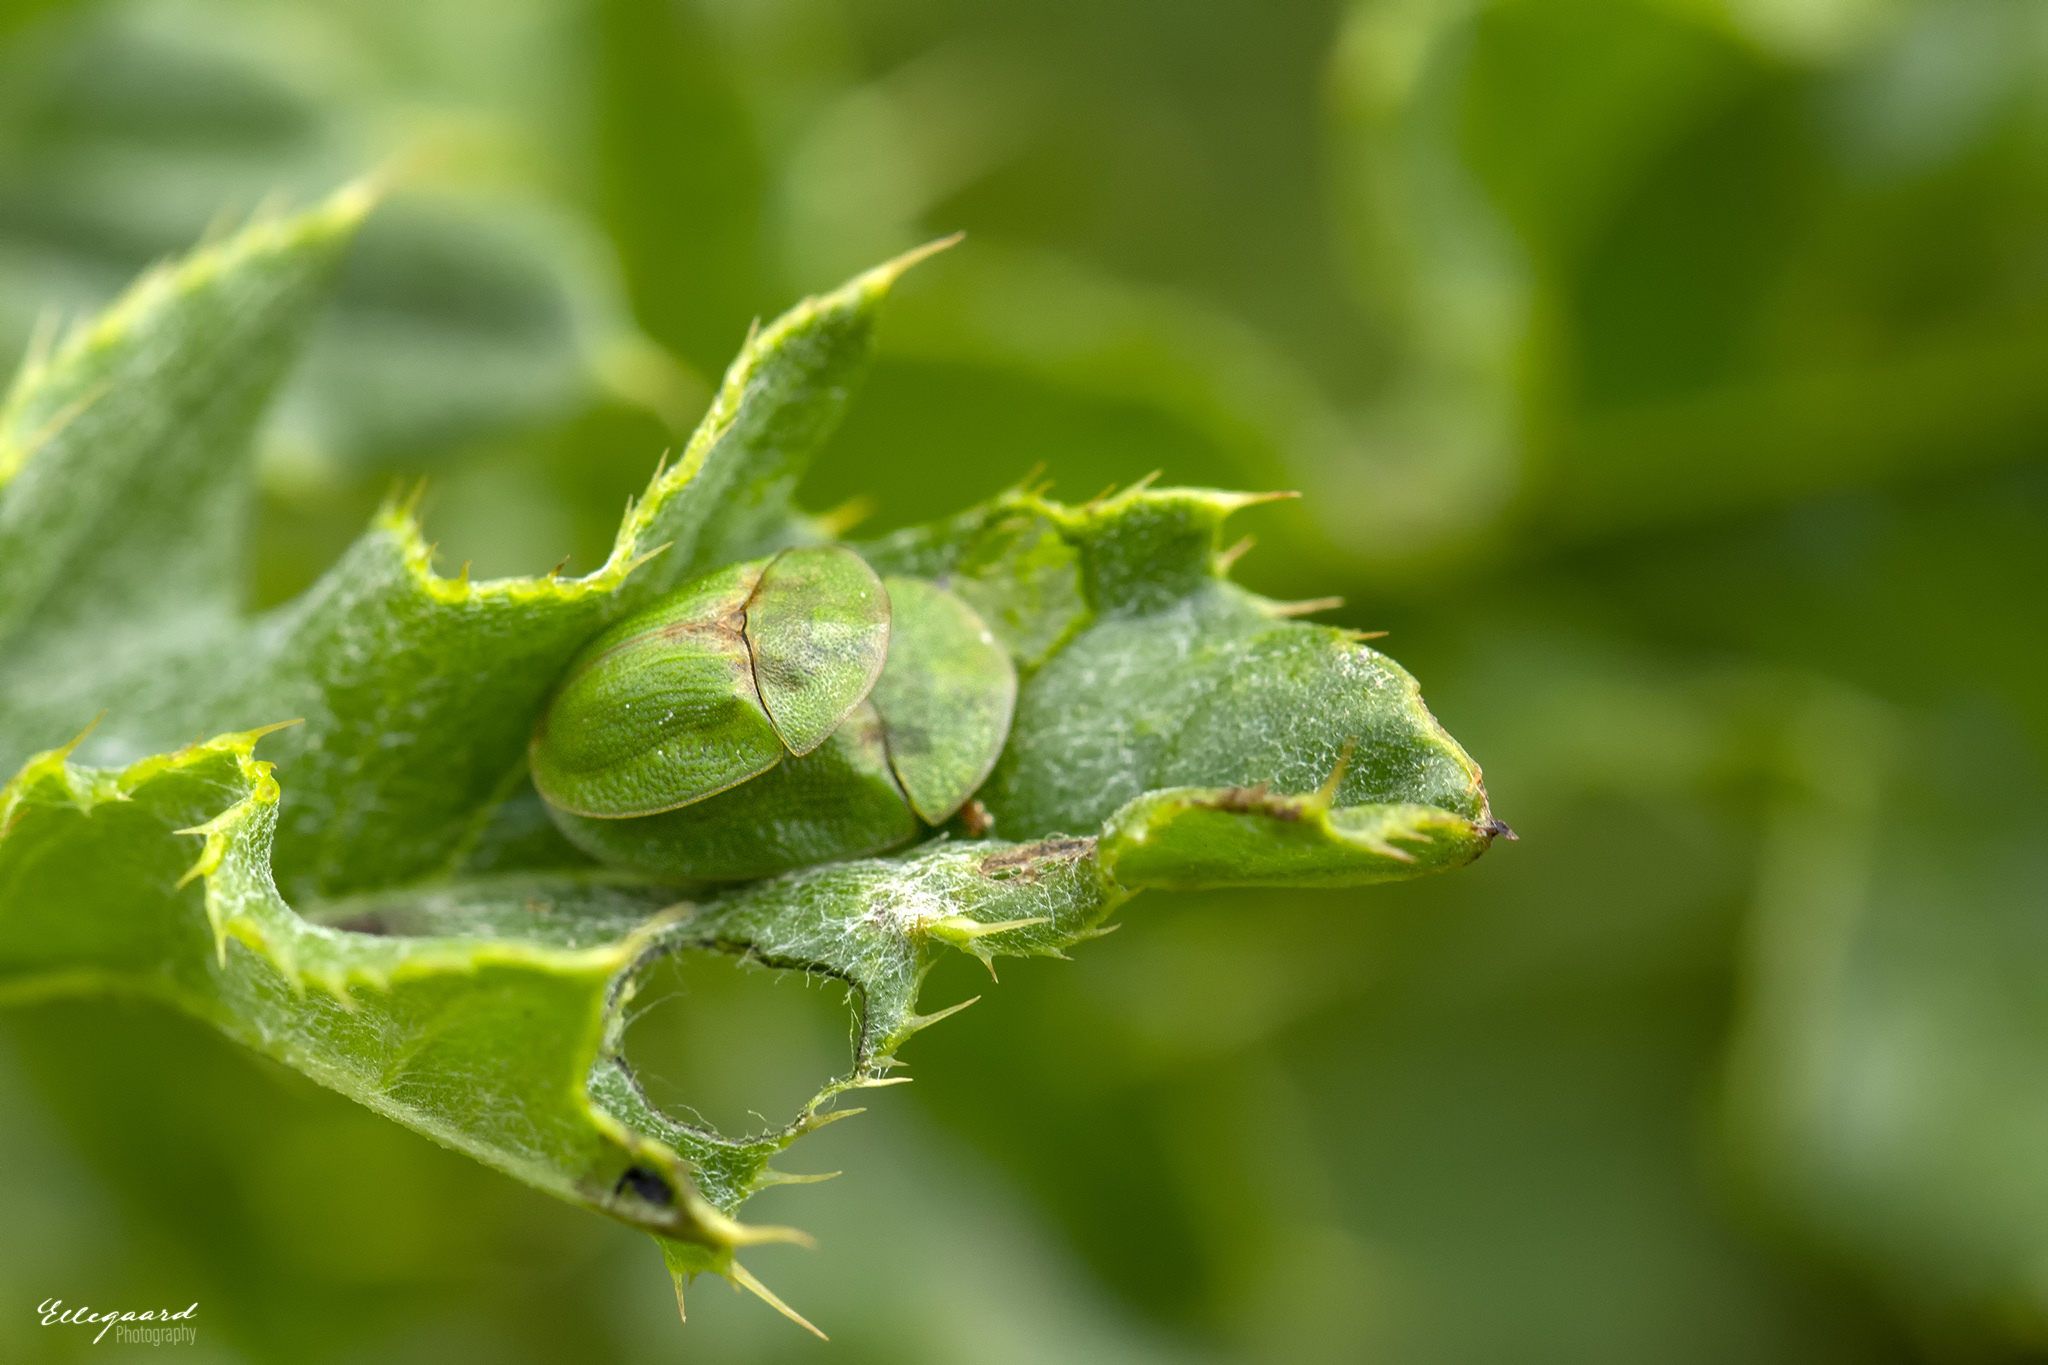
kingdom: Animalia
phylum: Arthropoda
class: Insecta
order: Coleoptera
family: Chrysomelidae
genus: Cassida
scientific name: Cassida rubiginosa
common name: Thistle tortoise beetle
